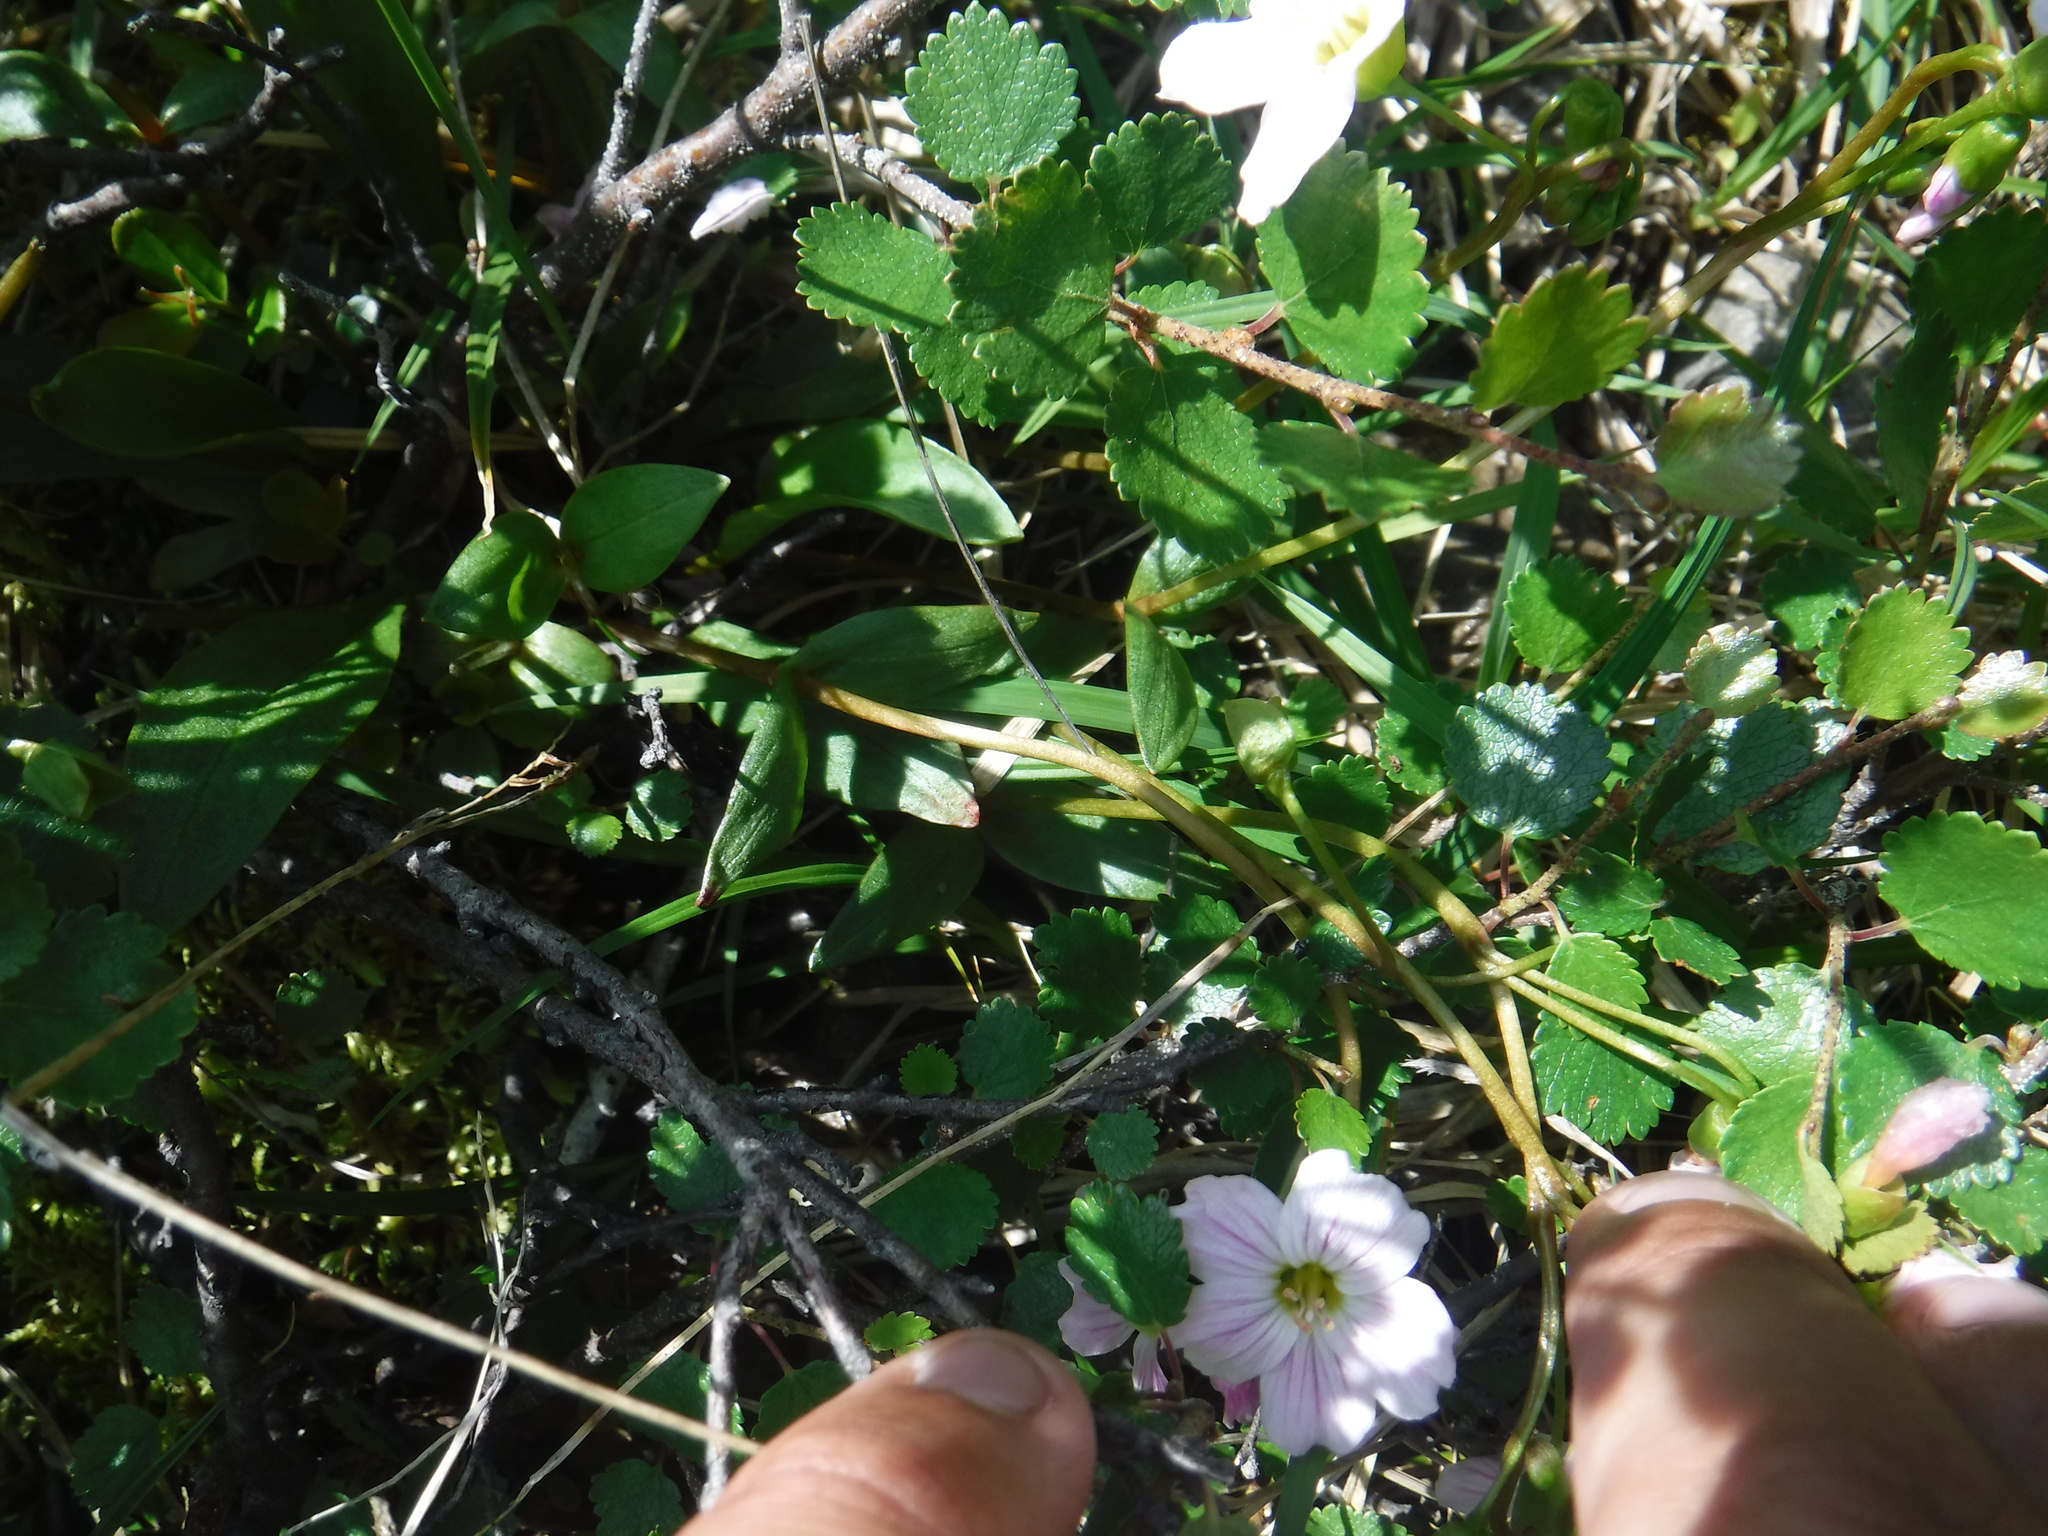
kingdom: Plantae
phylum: Tracheophyta
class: Magnoliopsida
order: Caryophyllales
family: Montiaceae
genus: Claytonia
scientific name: Claytonia joanneana
